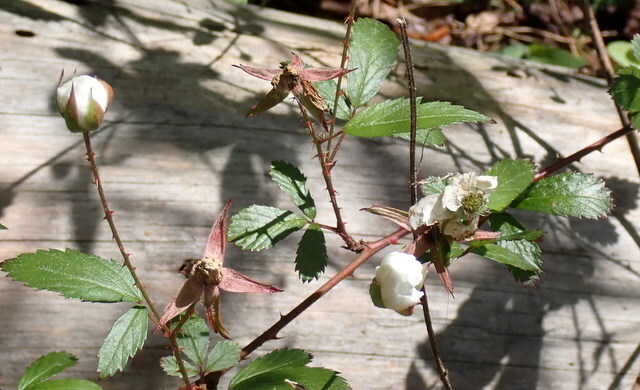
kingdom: Plantae
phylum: Tracheophyta
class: Magnoliopsida
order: Rosales
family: Rosaceae
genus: Rubus
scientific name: Rubus trivialis
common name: Southern dewberry
